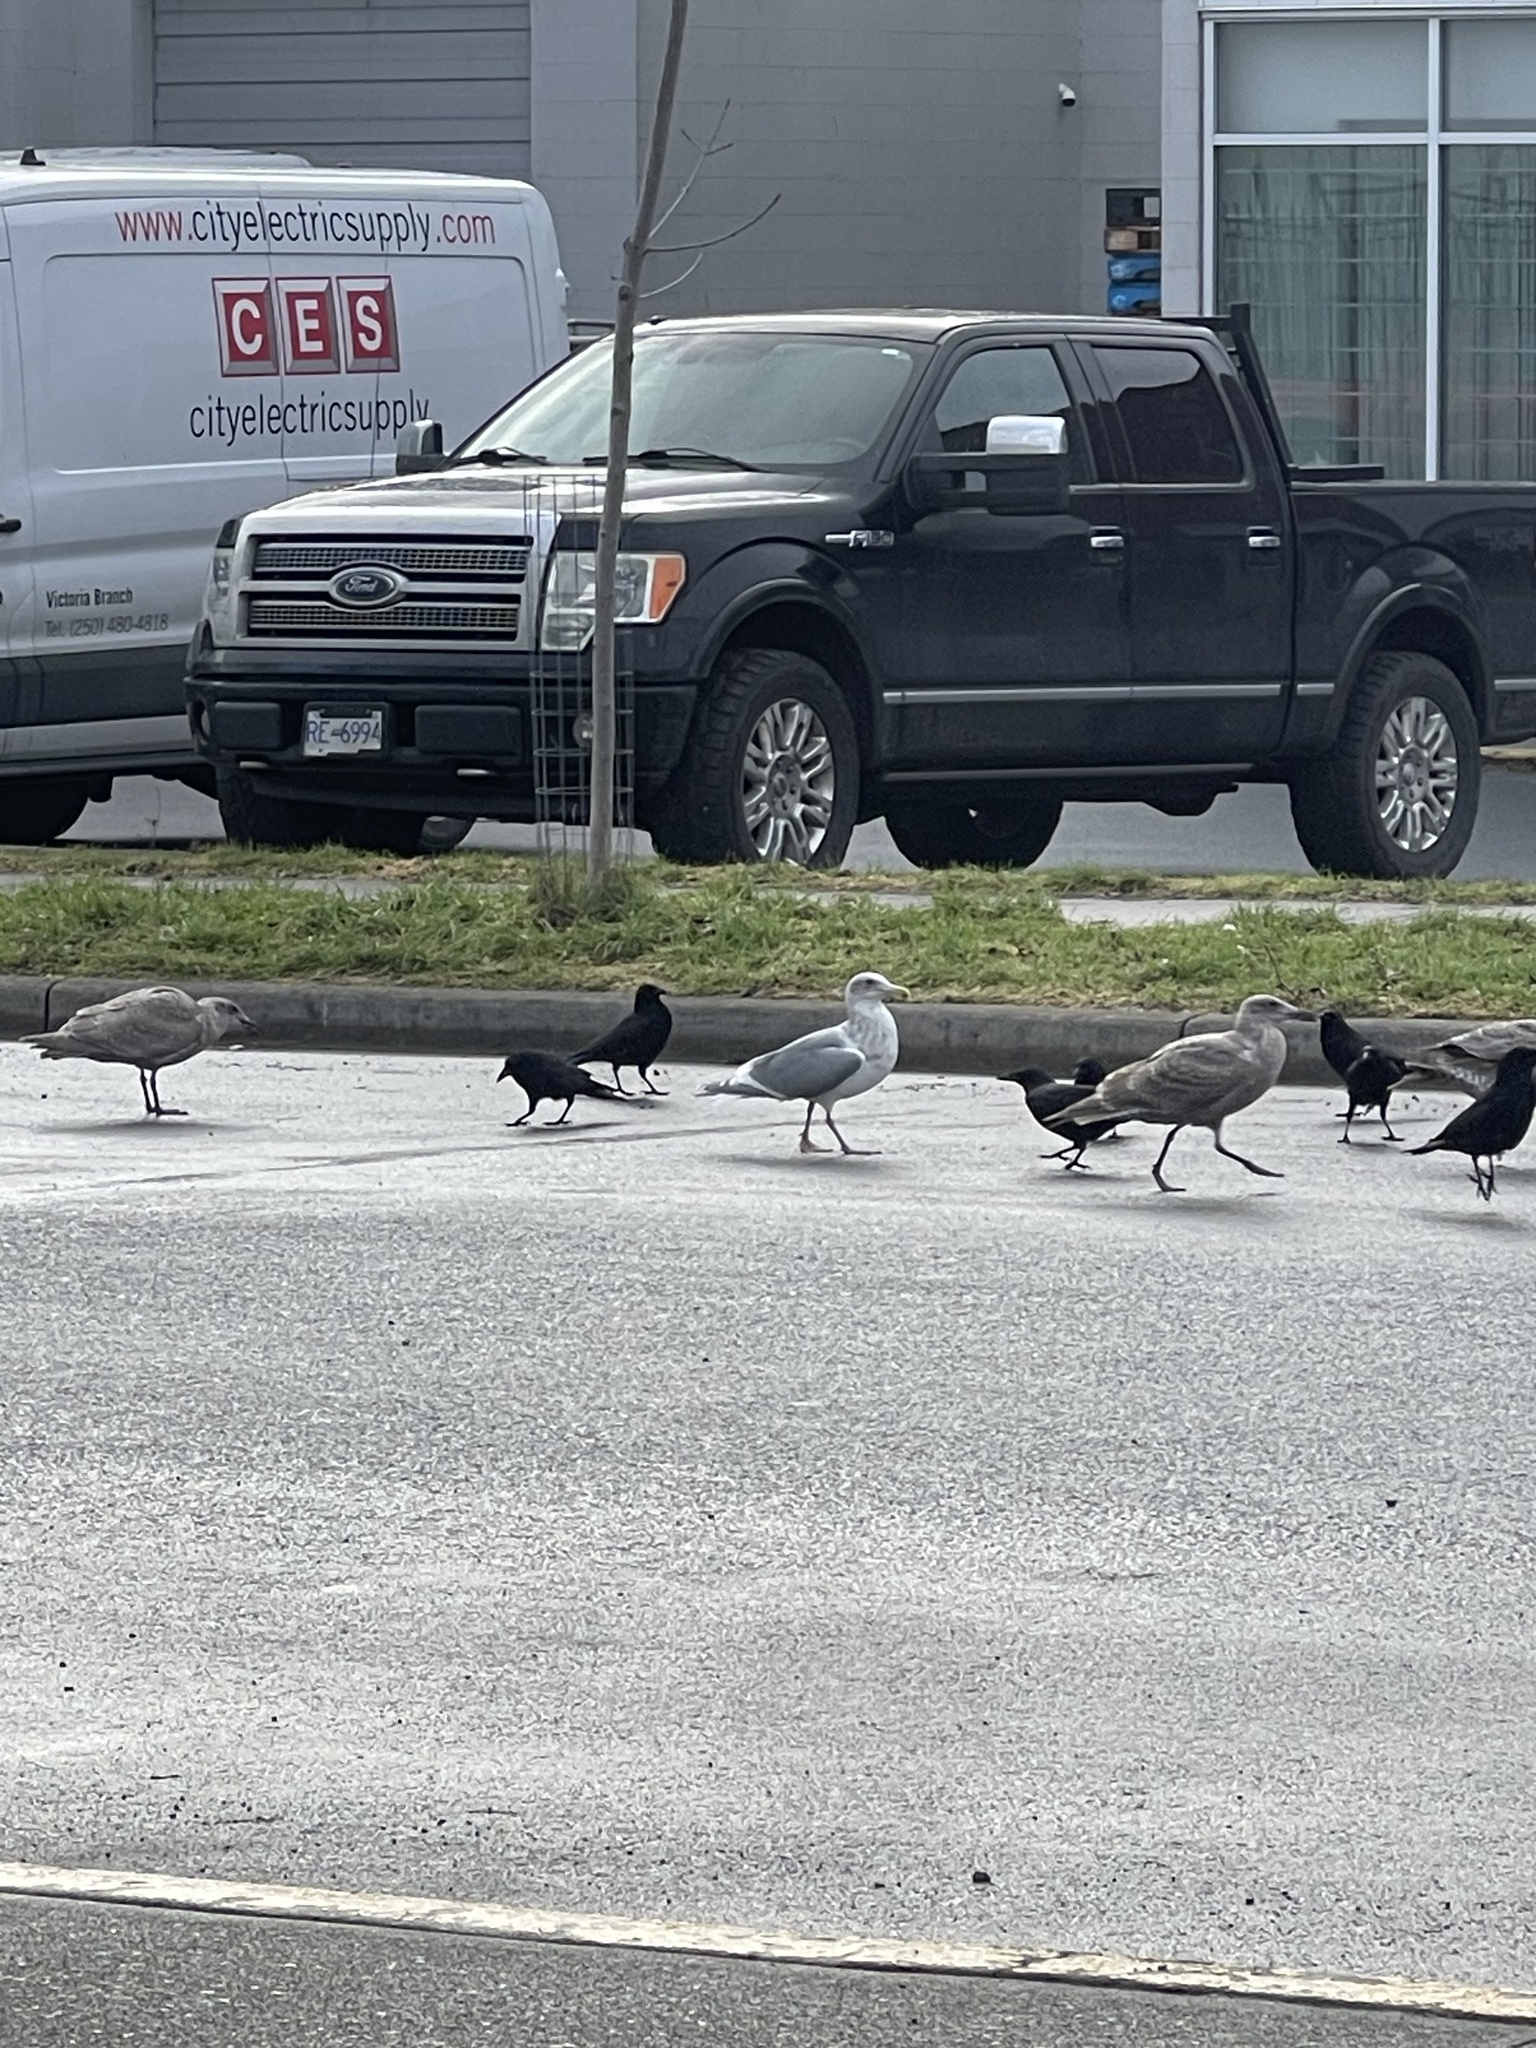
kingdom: Animalia
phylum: Chordata
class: Aves
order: Charadriiformes
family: Laridae
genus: Larus
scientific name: Larus glaucescens
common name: Glaucous-winged gull
